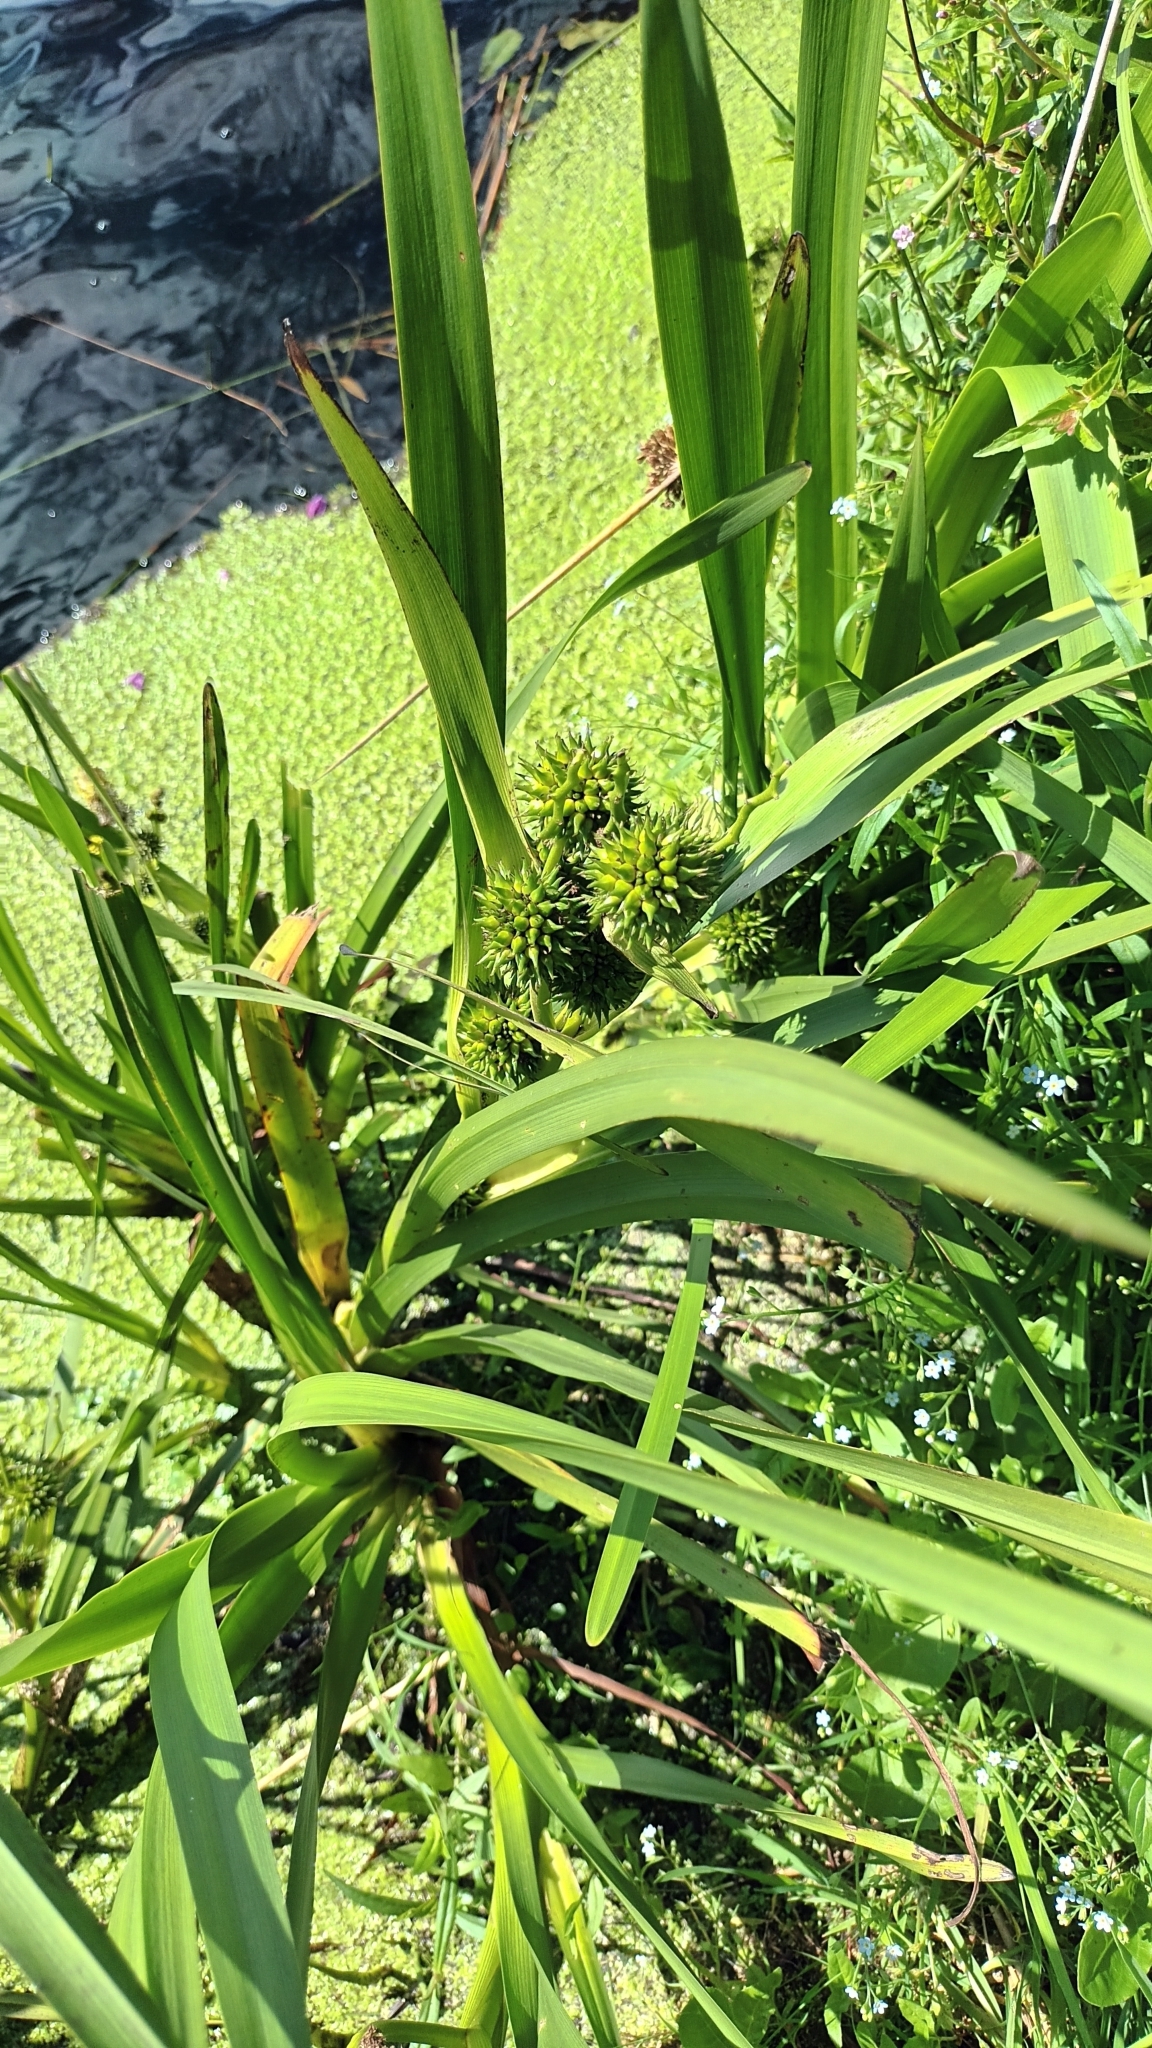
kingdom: Plantae
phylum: Tracheophyta
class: Liliopsida
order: Poales
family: Typhaceae
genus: Sparganium
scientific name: Sparganium erectum
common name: Branched bur-reed
